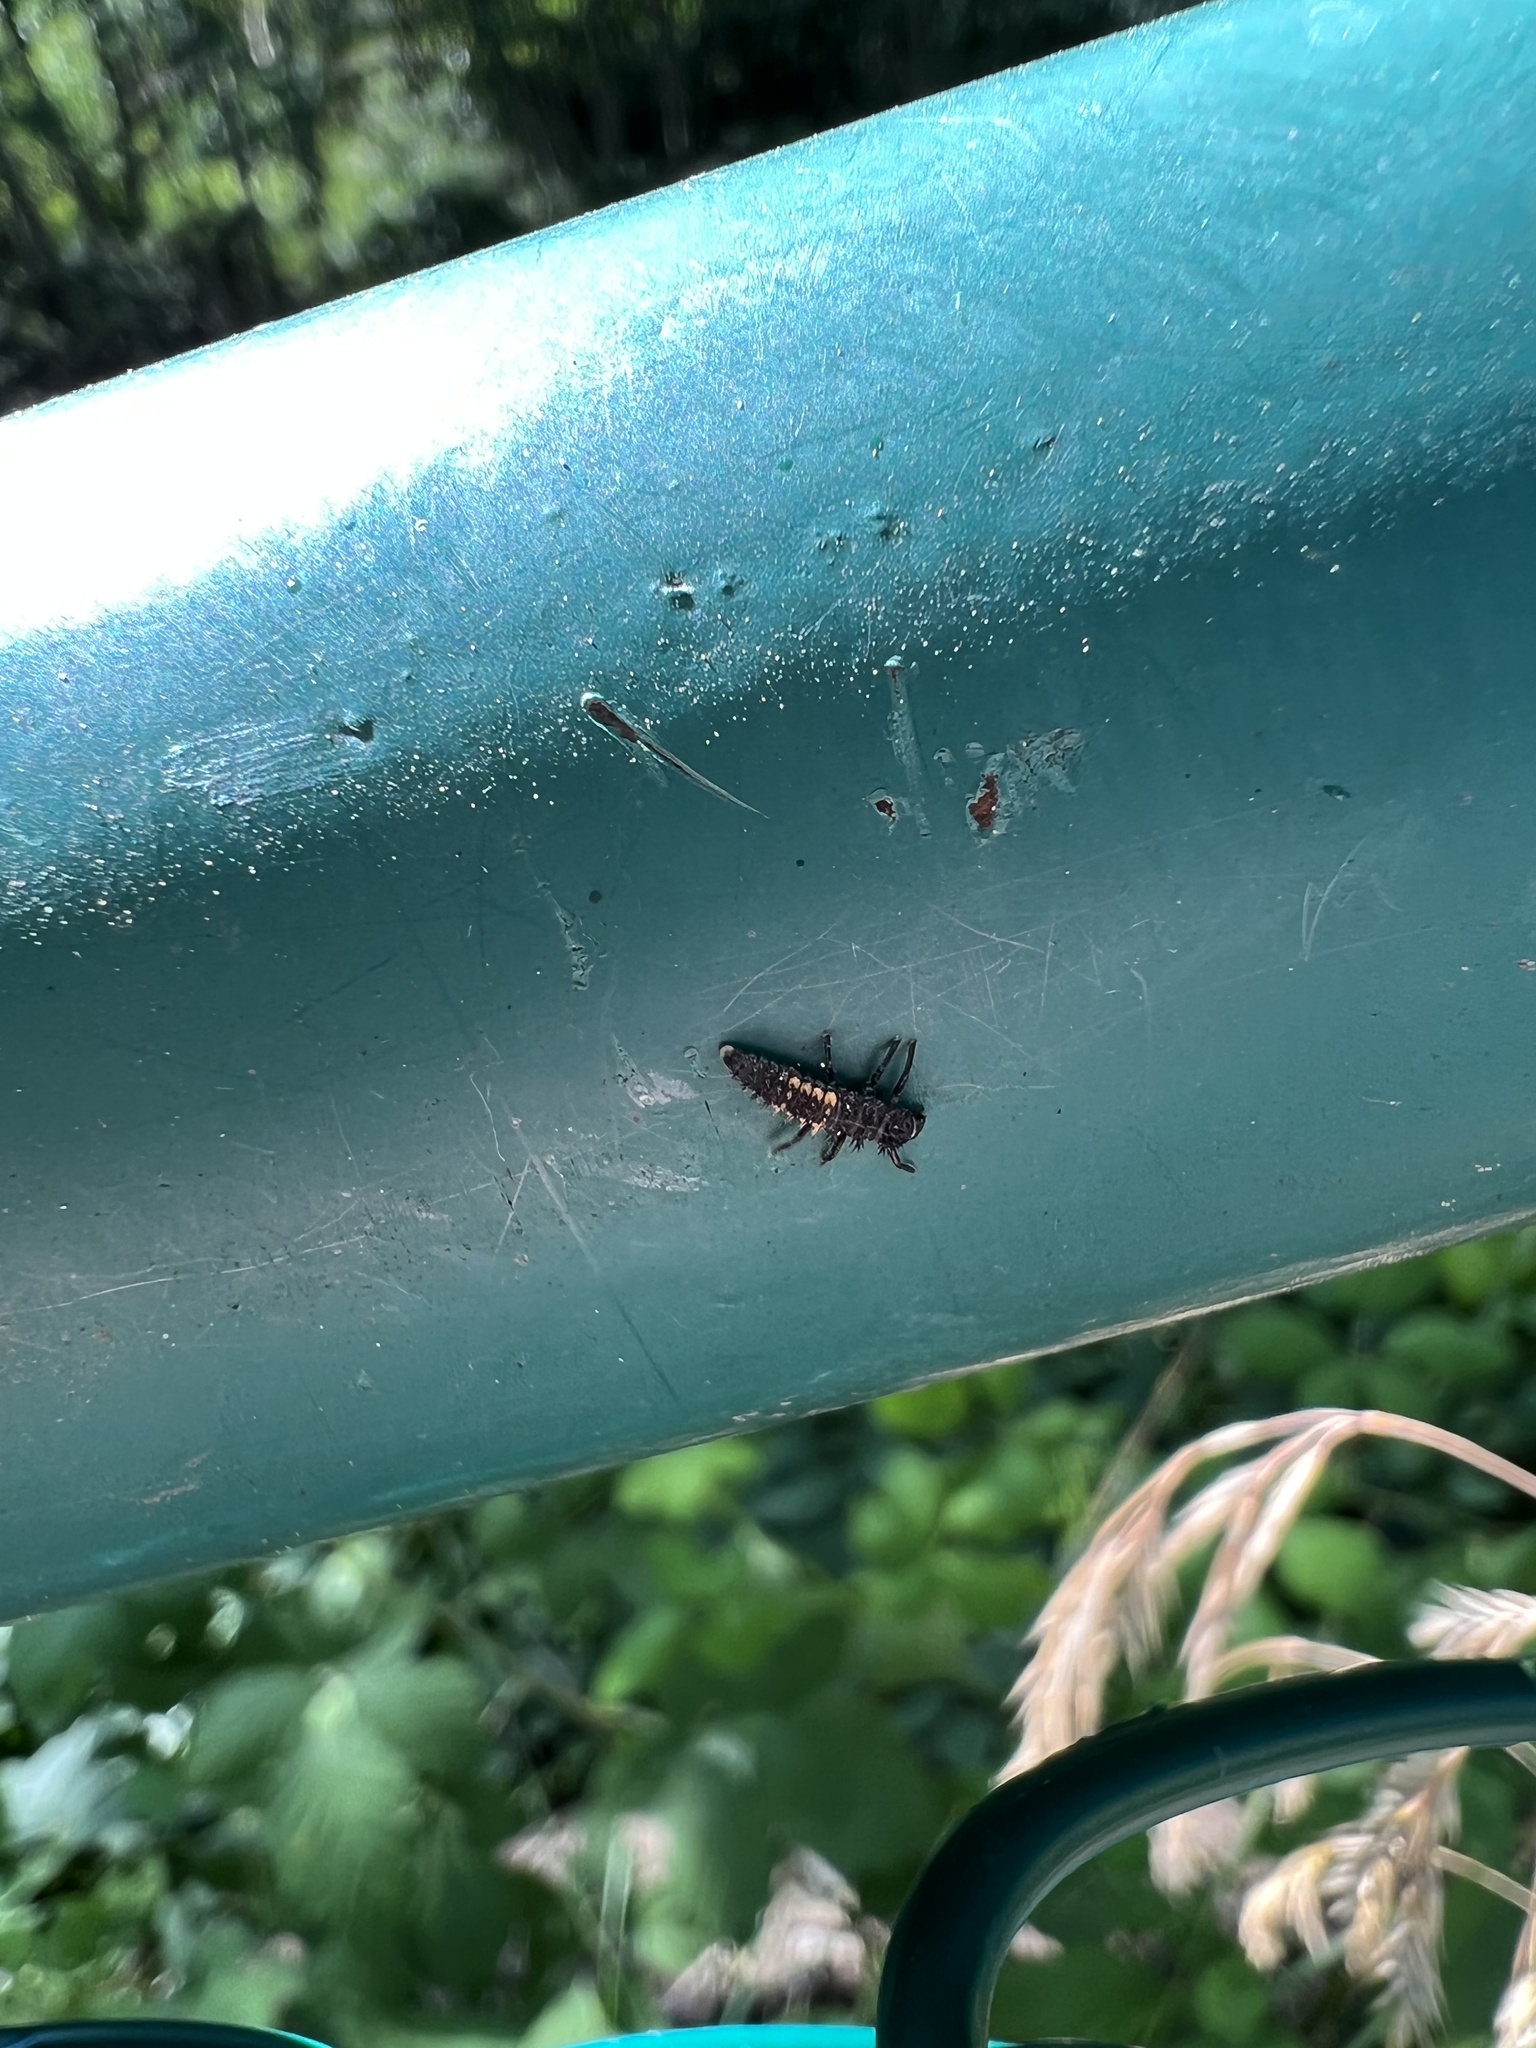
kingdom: Animalia
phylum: Arthropoda
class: Insecta
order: Coleoptera
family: Coccinellidae
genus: Harmonia
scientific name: Harmonia axyridis
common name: Harlequin ladybird
